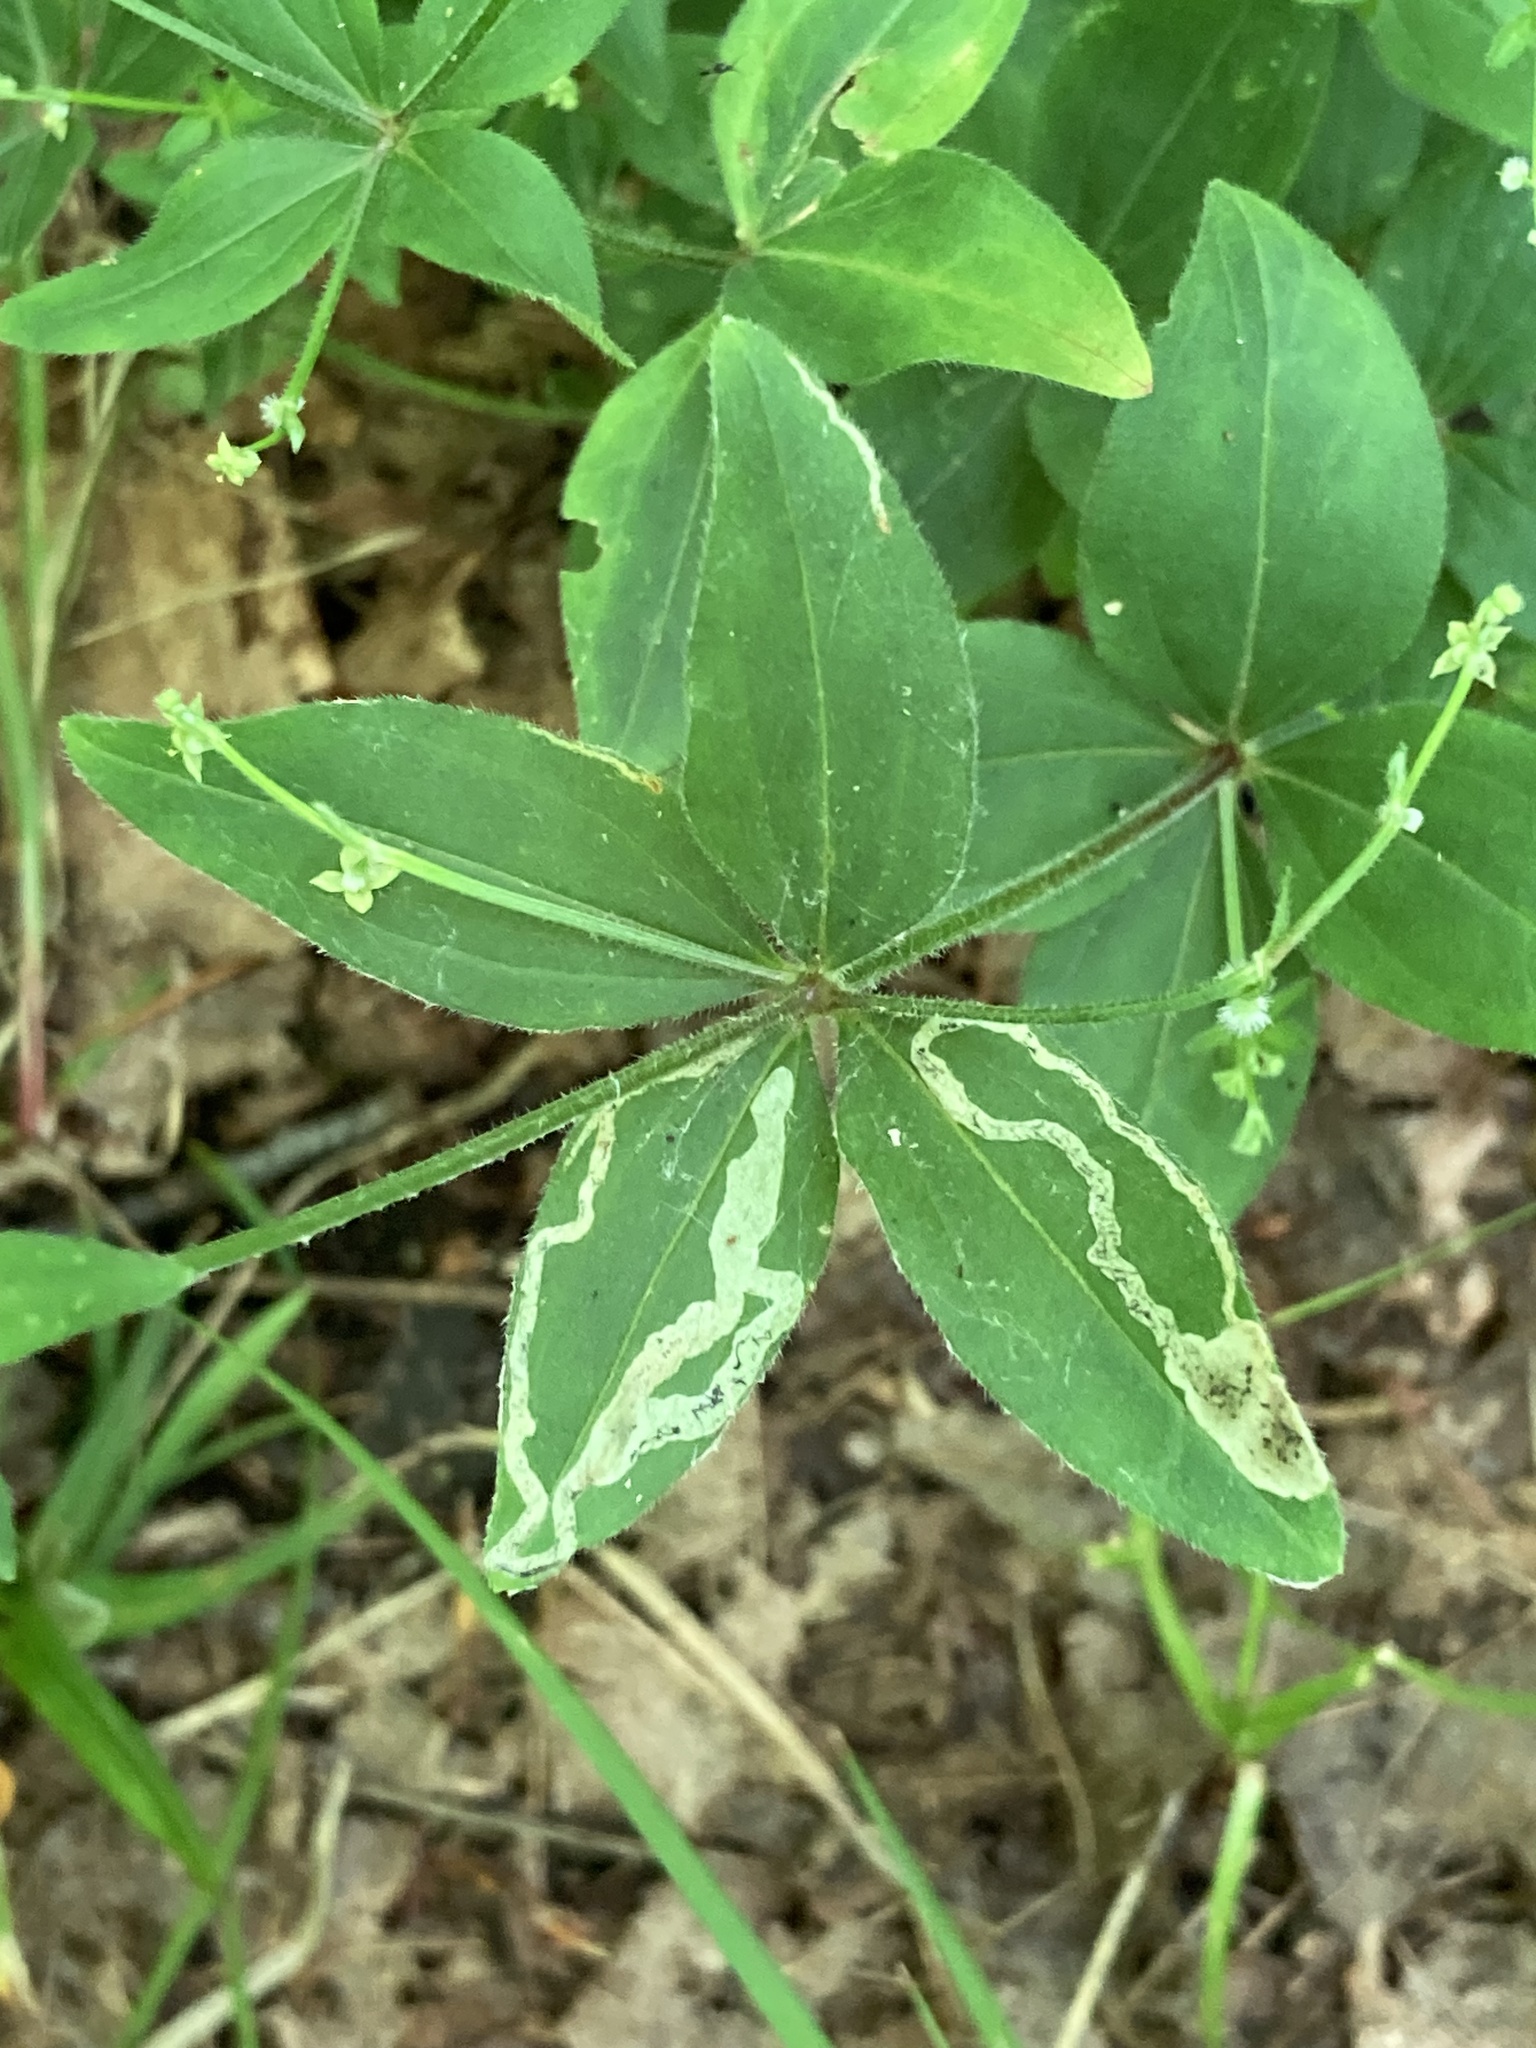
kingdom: Animalia
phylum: Arthropoda
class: Insecta
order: Diptera
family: Agromyzidae
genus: Liriomyza
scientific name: Liriomyza galiivora
